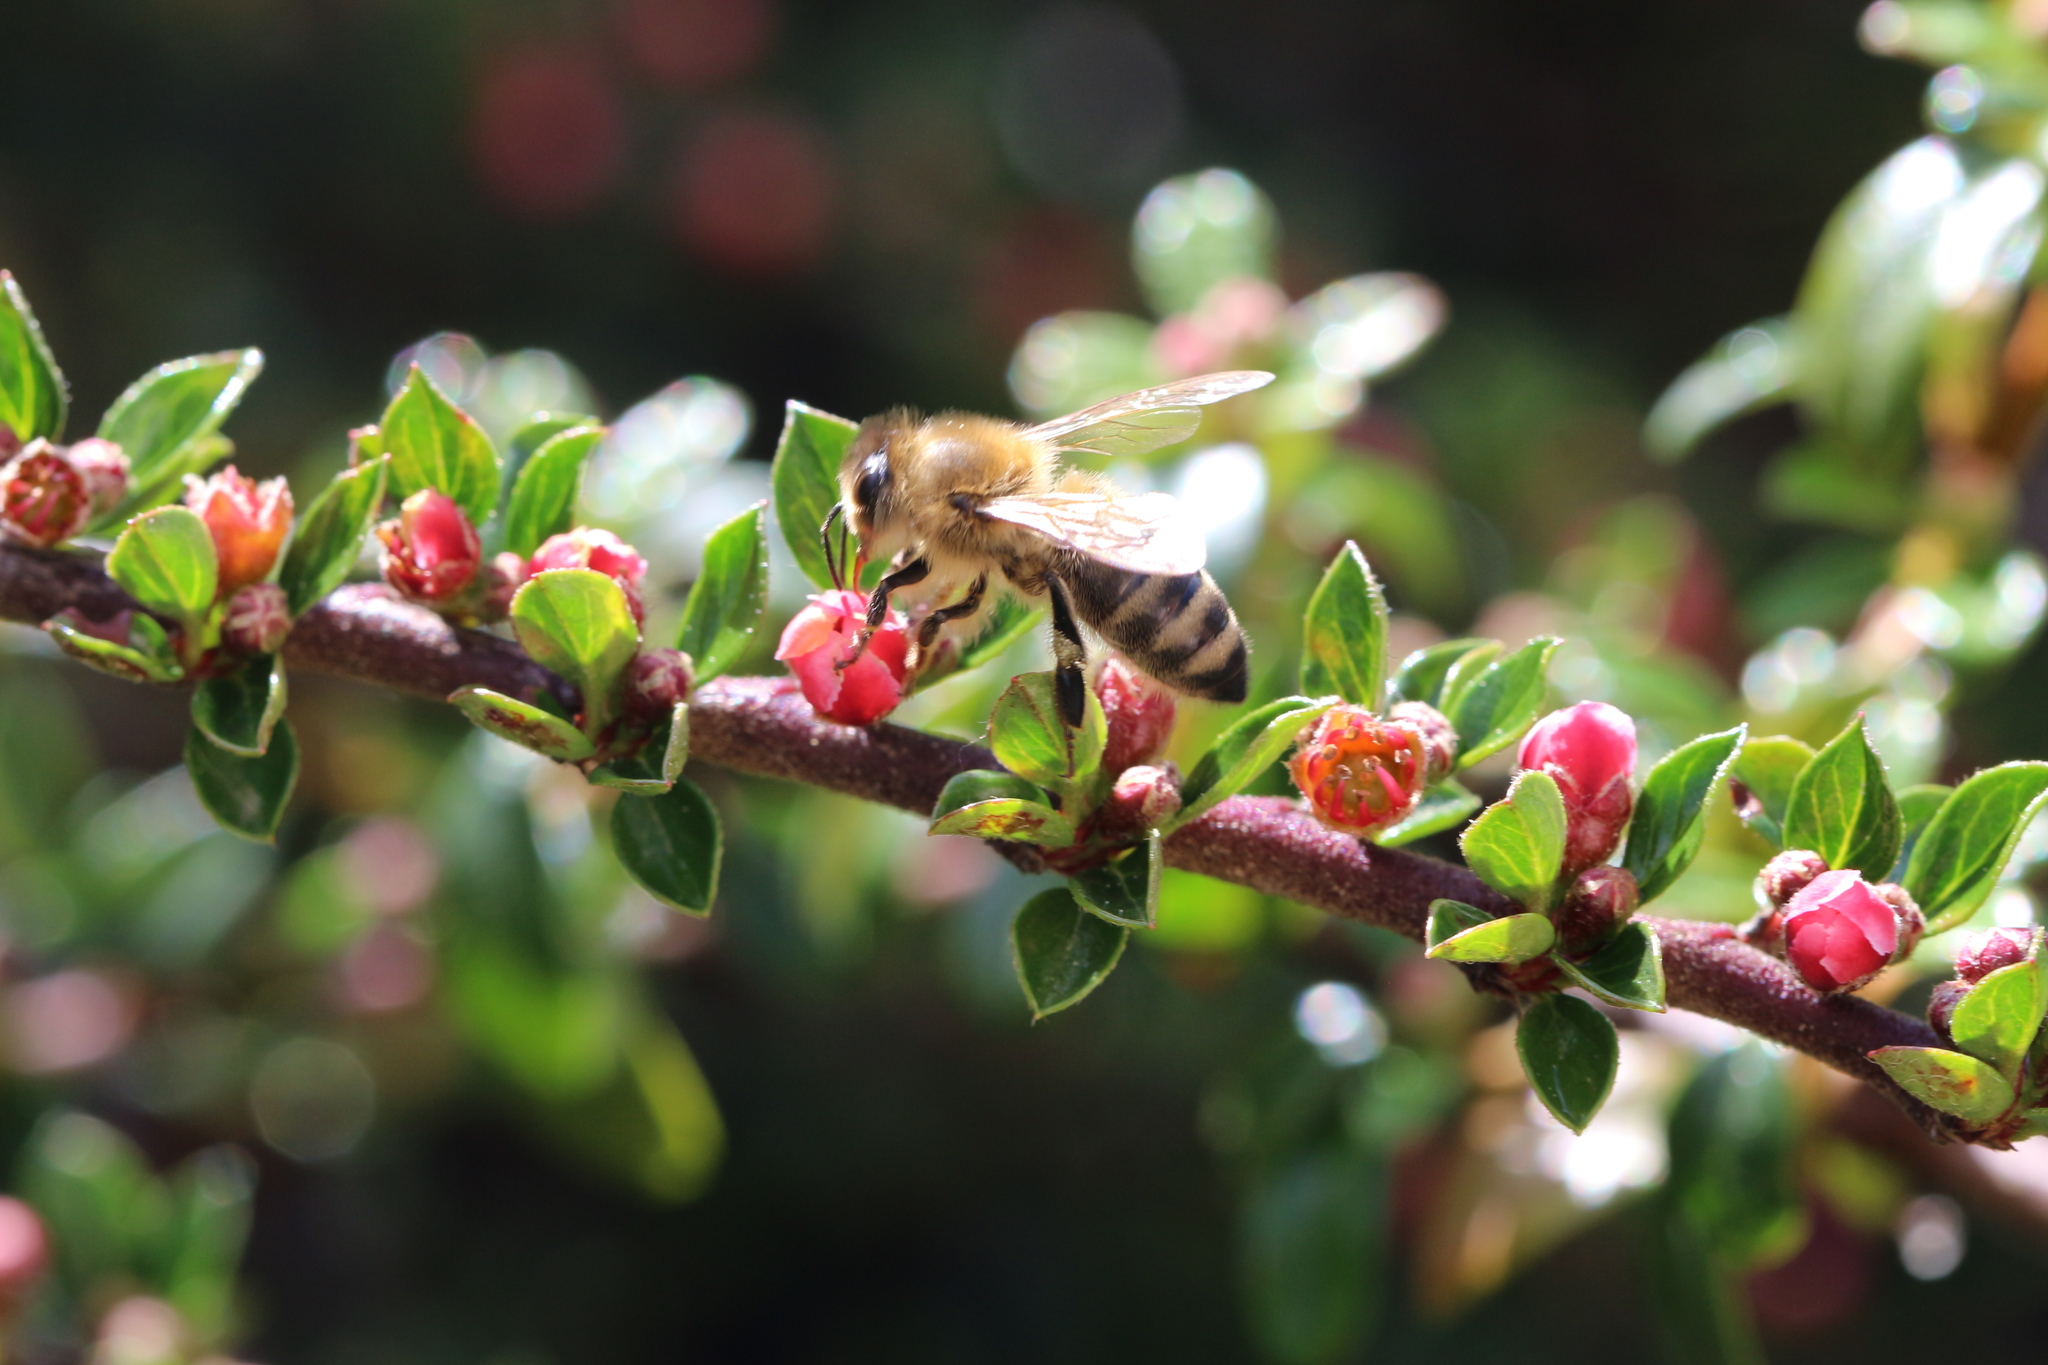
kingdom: Animalia
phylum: Arthropoda
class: Insecta
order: Hymenoptera
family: Apidae
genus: Apis
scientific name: Apis mellifera
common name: Honey bee
